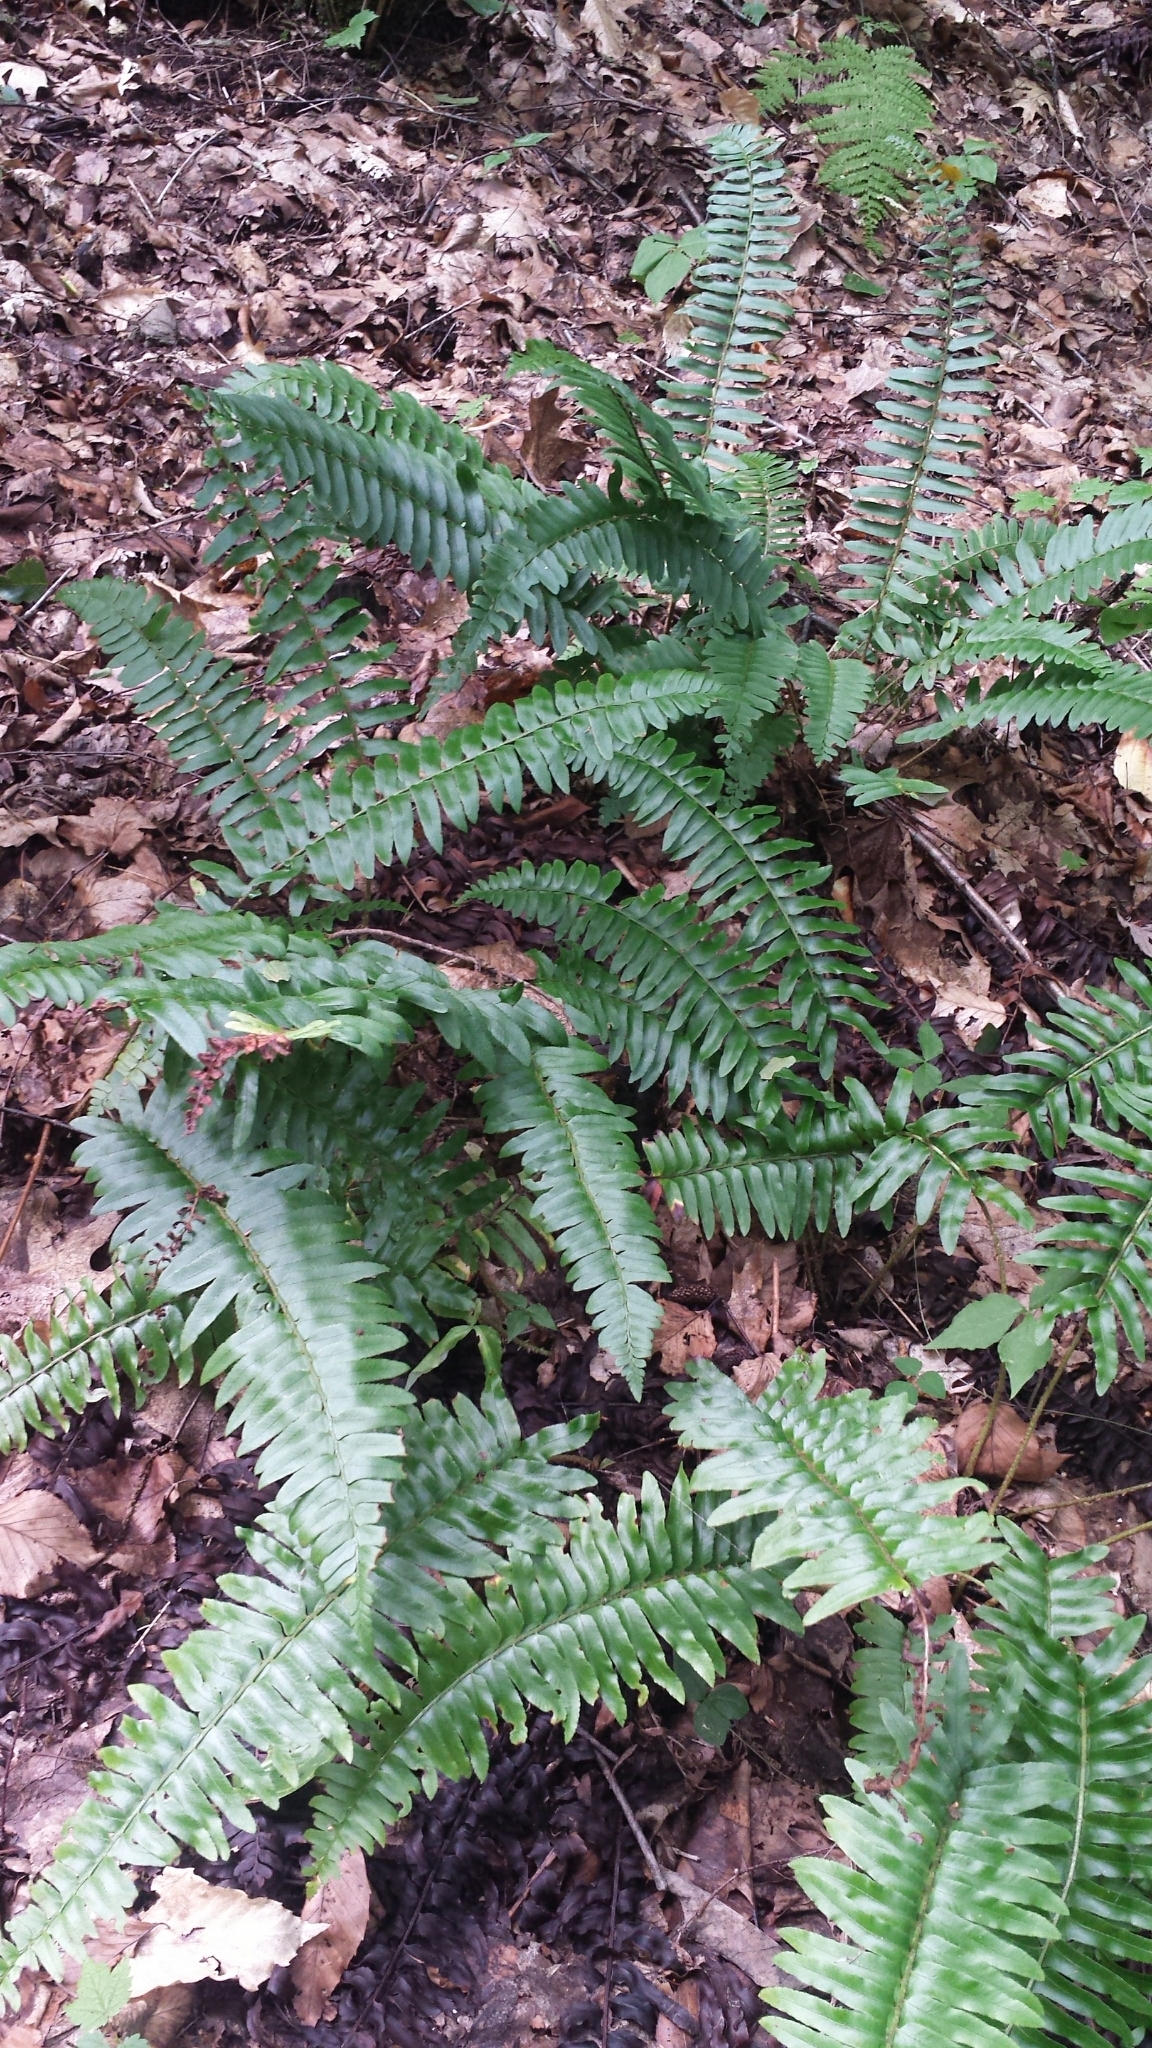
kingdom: Plantae
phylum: Tracheophyta
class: Polypodiopsida
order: Polypodiales
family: Dryopteridaceae
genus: Polystichum
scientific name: Polystichum acrostichoides
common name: Christmas fern
